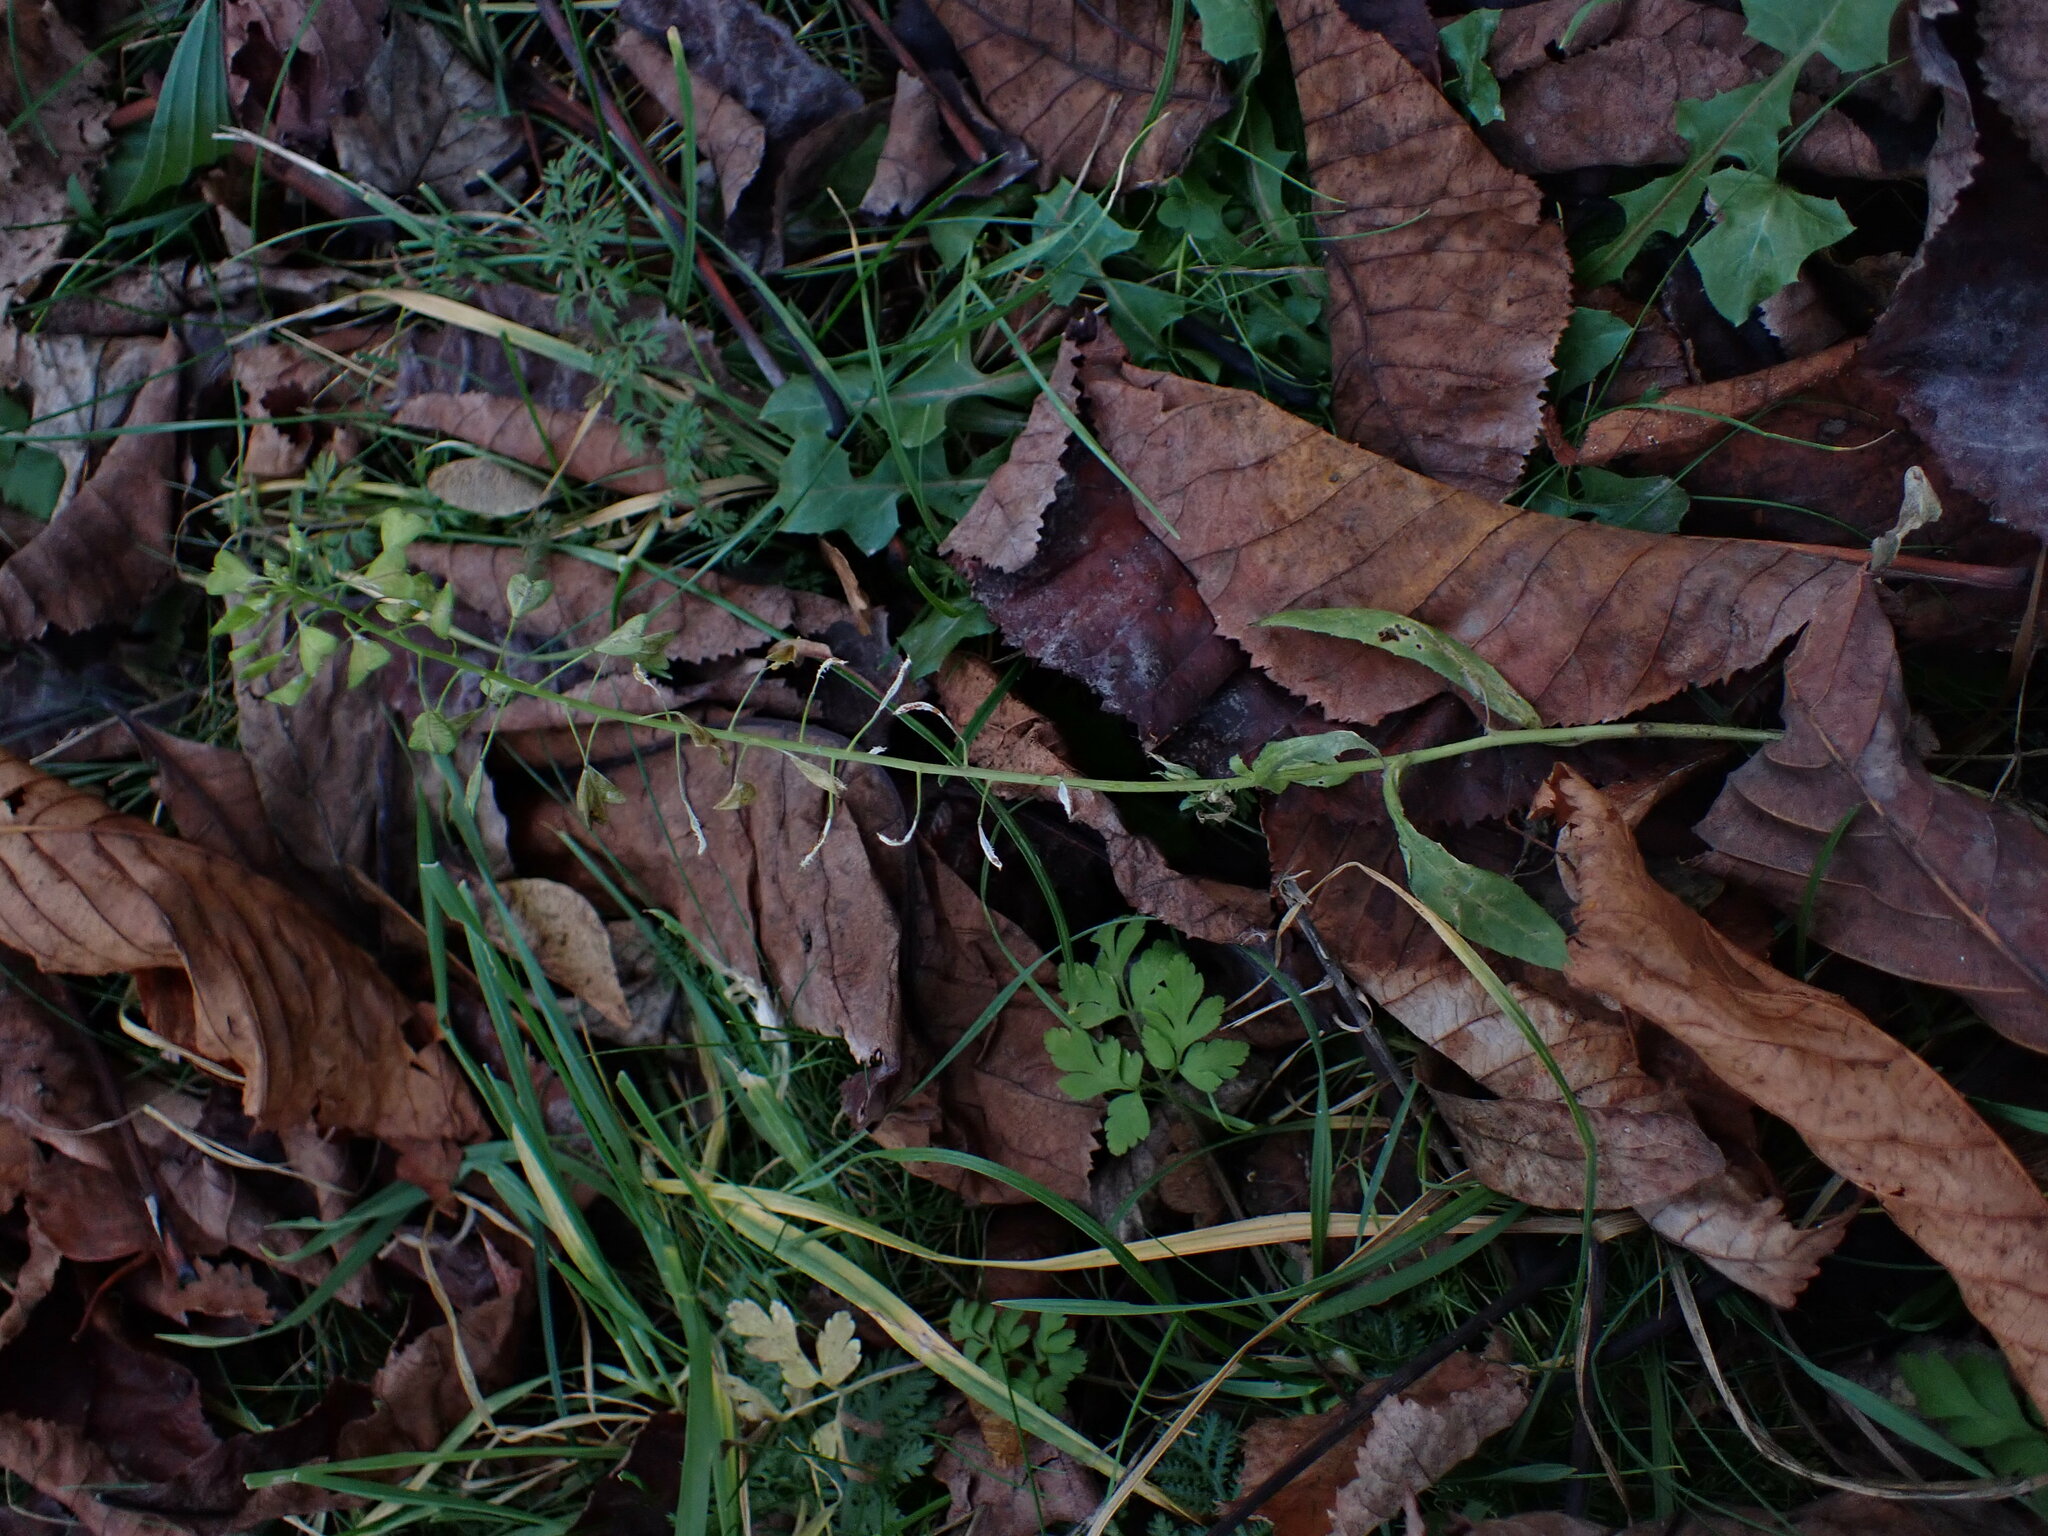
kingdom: Plantae
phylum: Tracheophyta
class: Magnoliopsida
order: Brassicales
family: Brassicaceae
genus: Capsella
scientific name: Capsella bursa-pastoris
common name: Shepherd's purse
